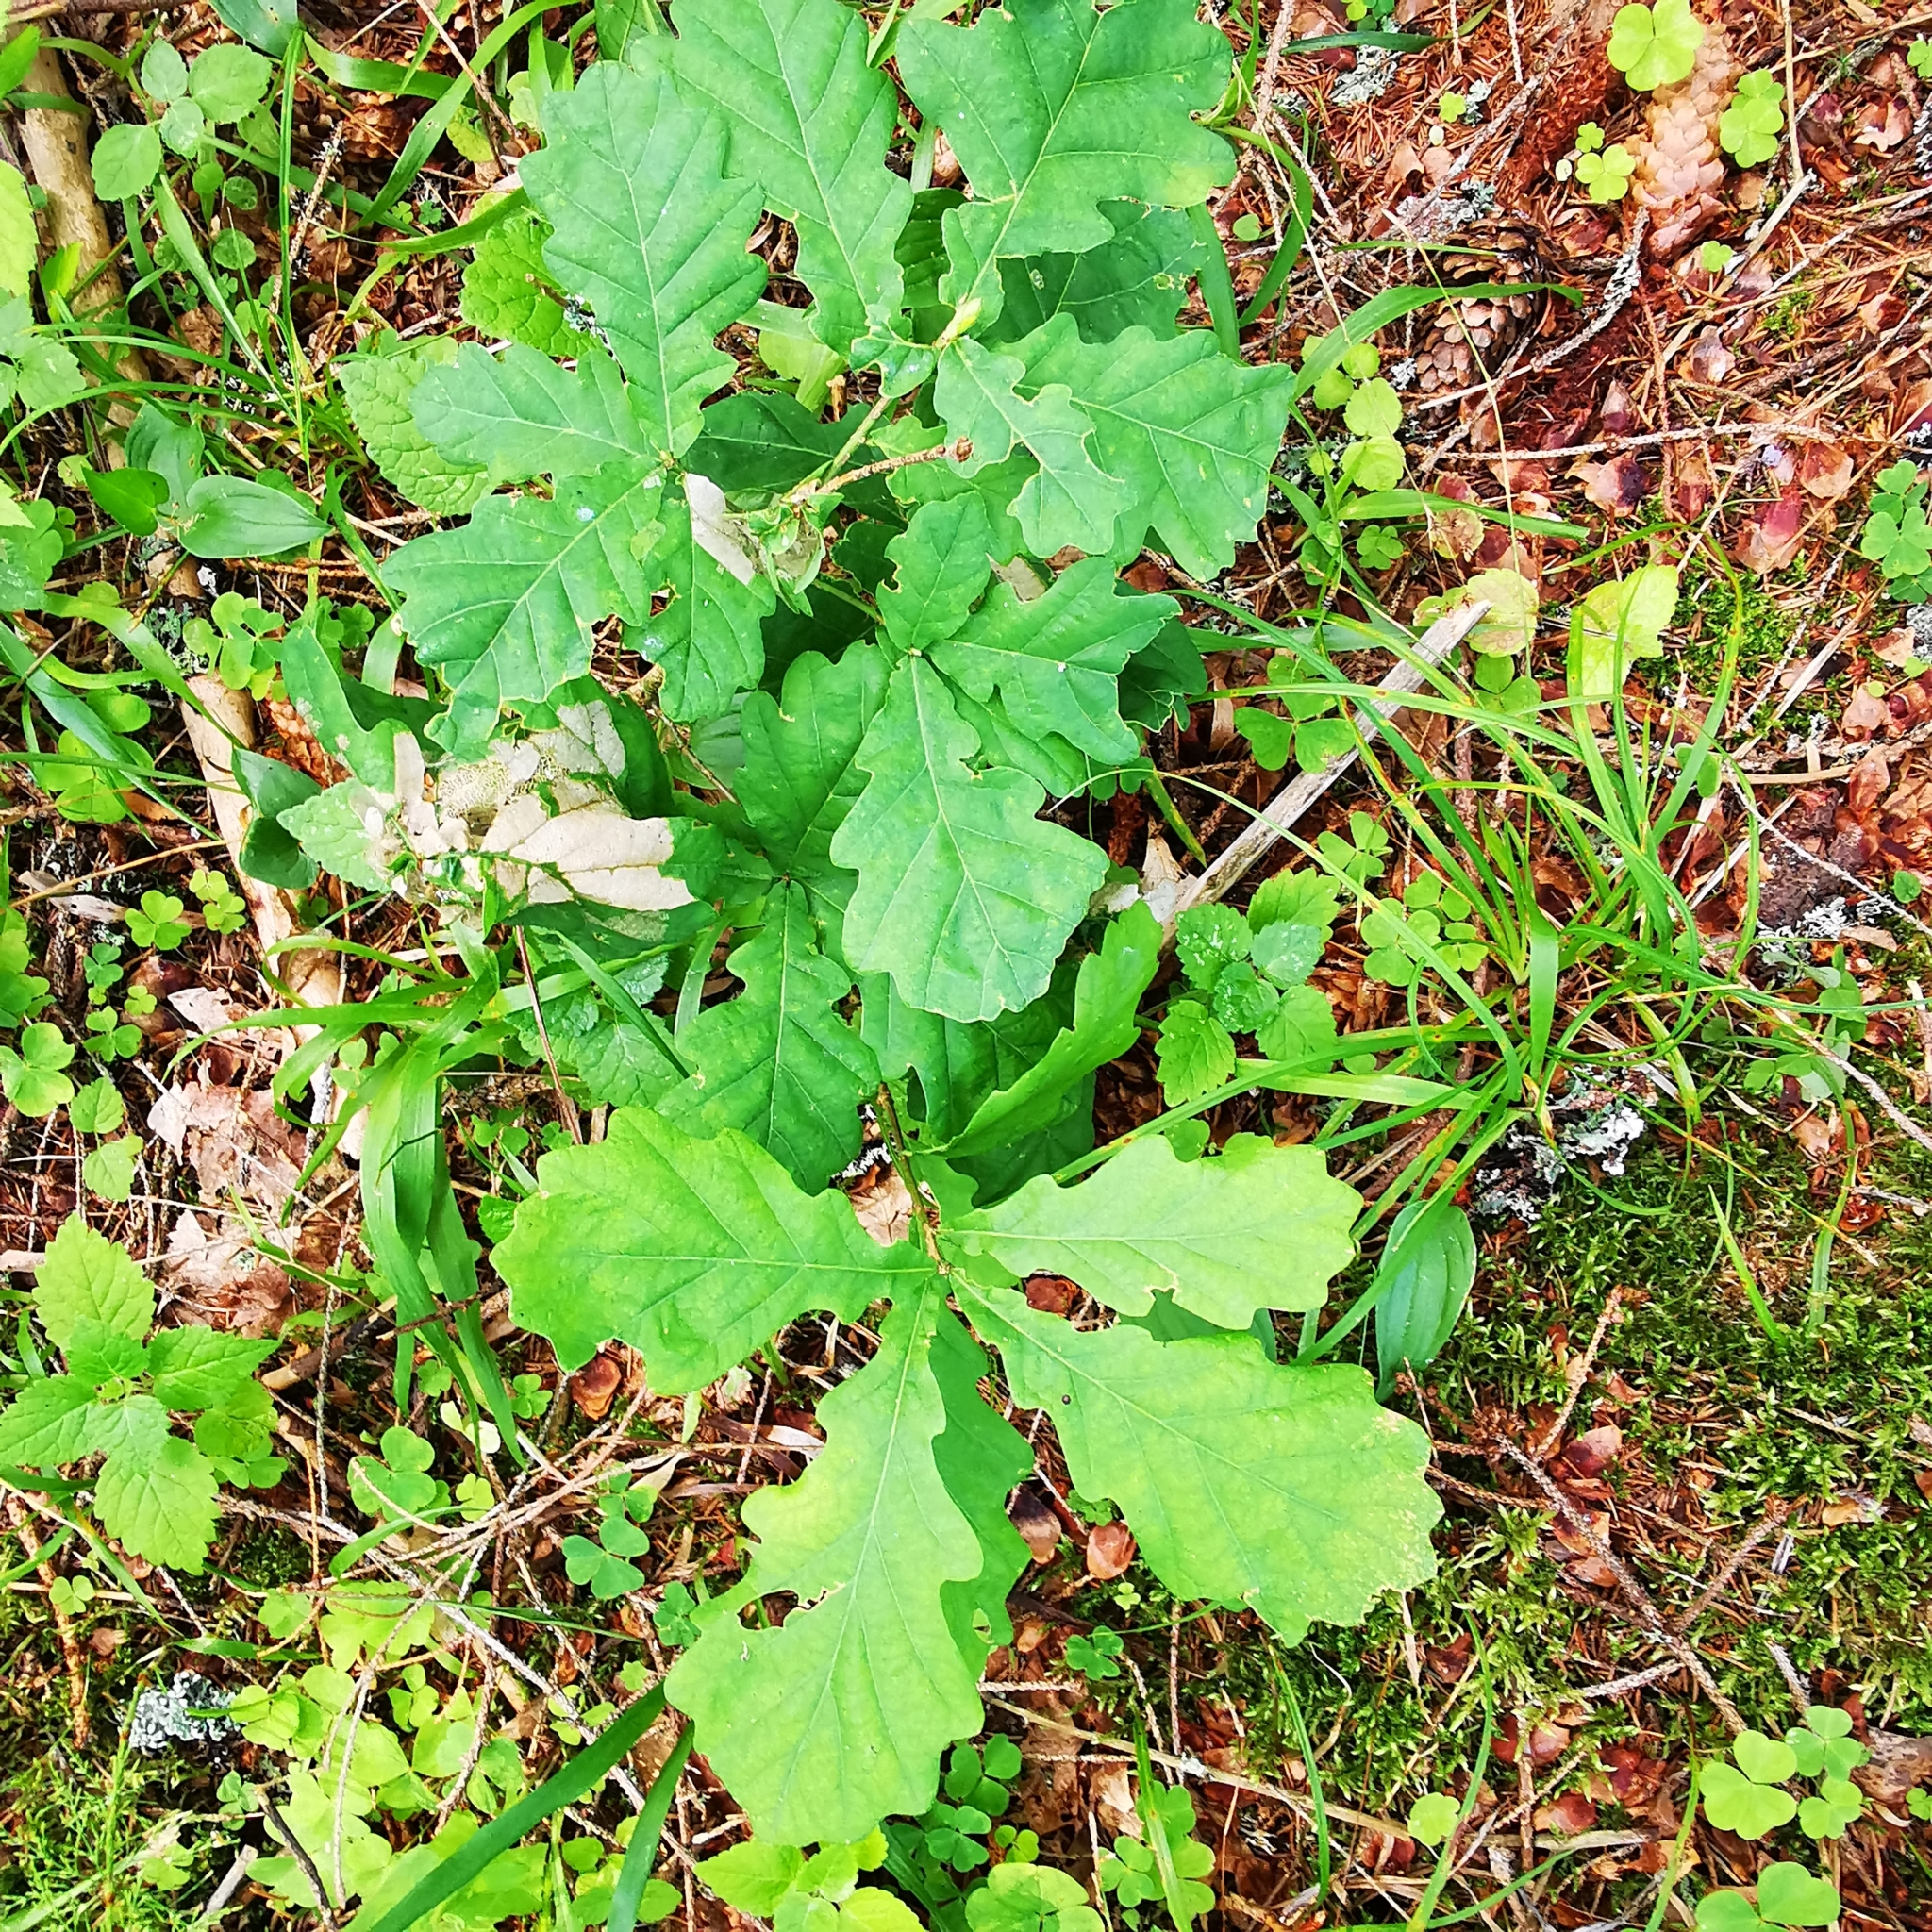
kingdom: Plantae
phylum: Tracheophyta
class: Magnoliopsida
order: Fagales
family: Fagaceae
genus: Quercus
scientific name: Quercus robur
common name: Pedunculate oak
